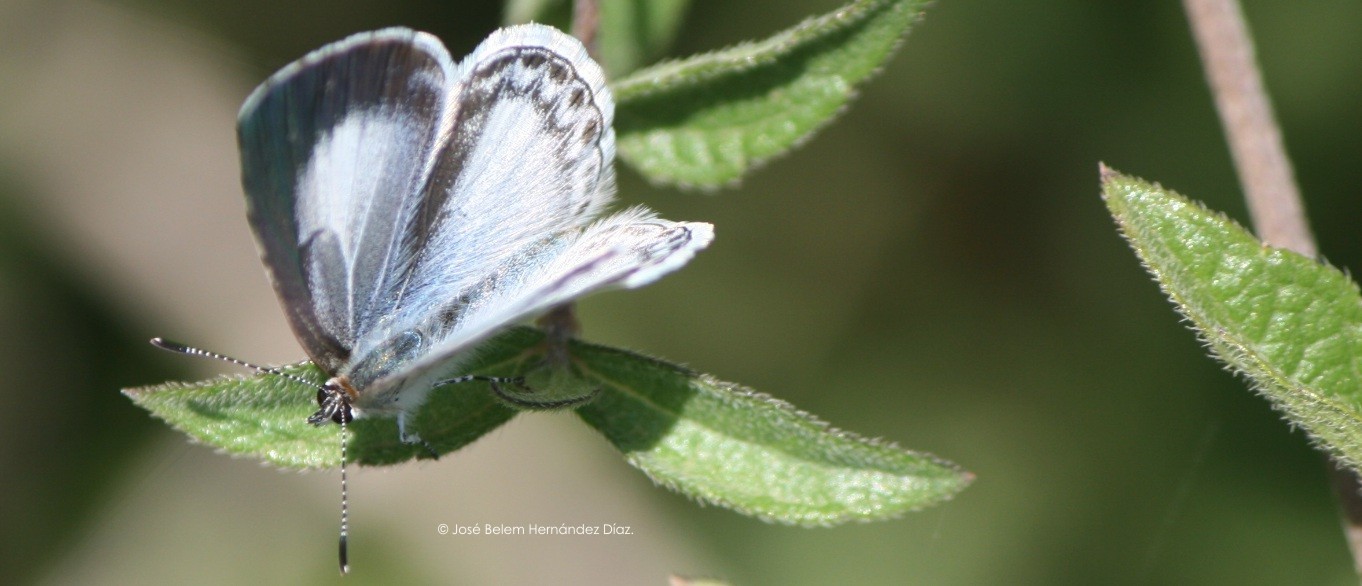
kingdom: Animalia
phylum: Arthropoda
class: Insecta
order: Lepidoptera
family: Lycaenidae
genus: Celastrina
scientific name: Celastrina ladon
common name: Spring azure
